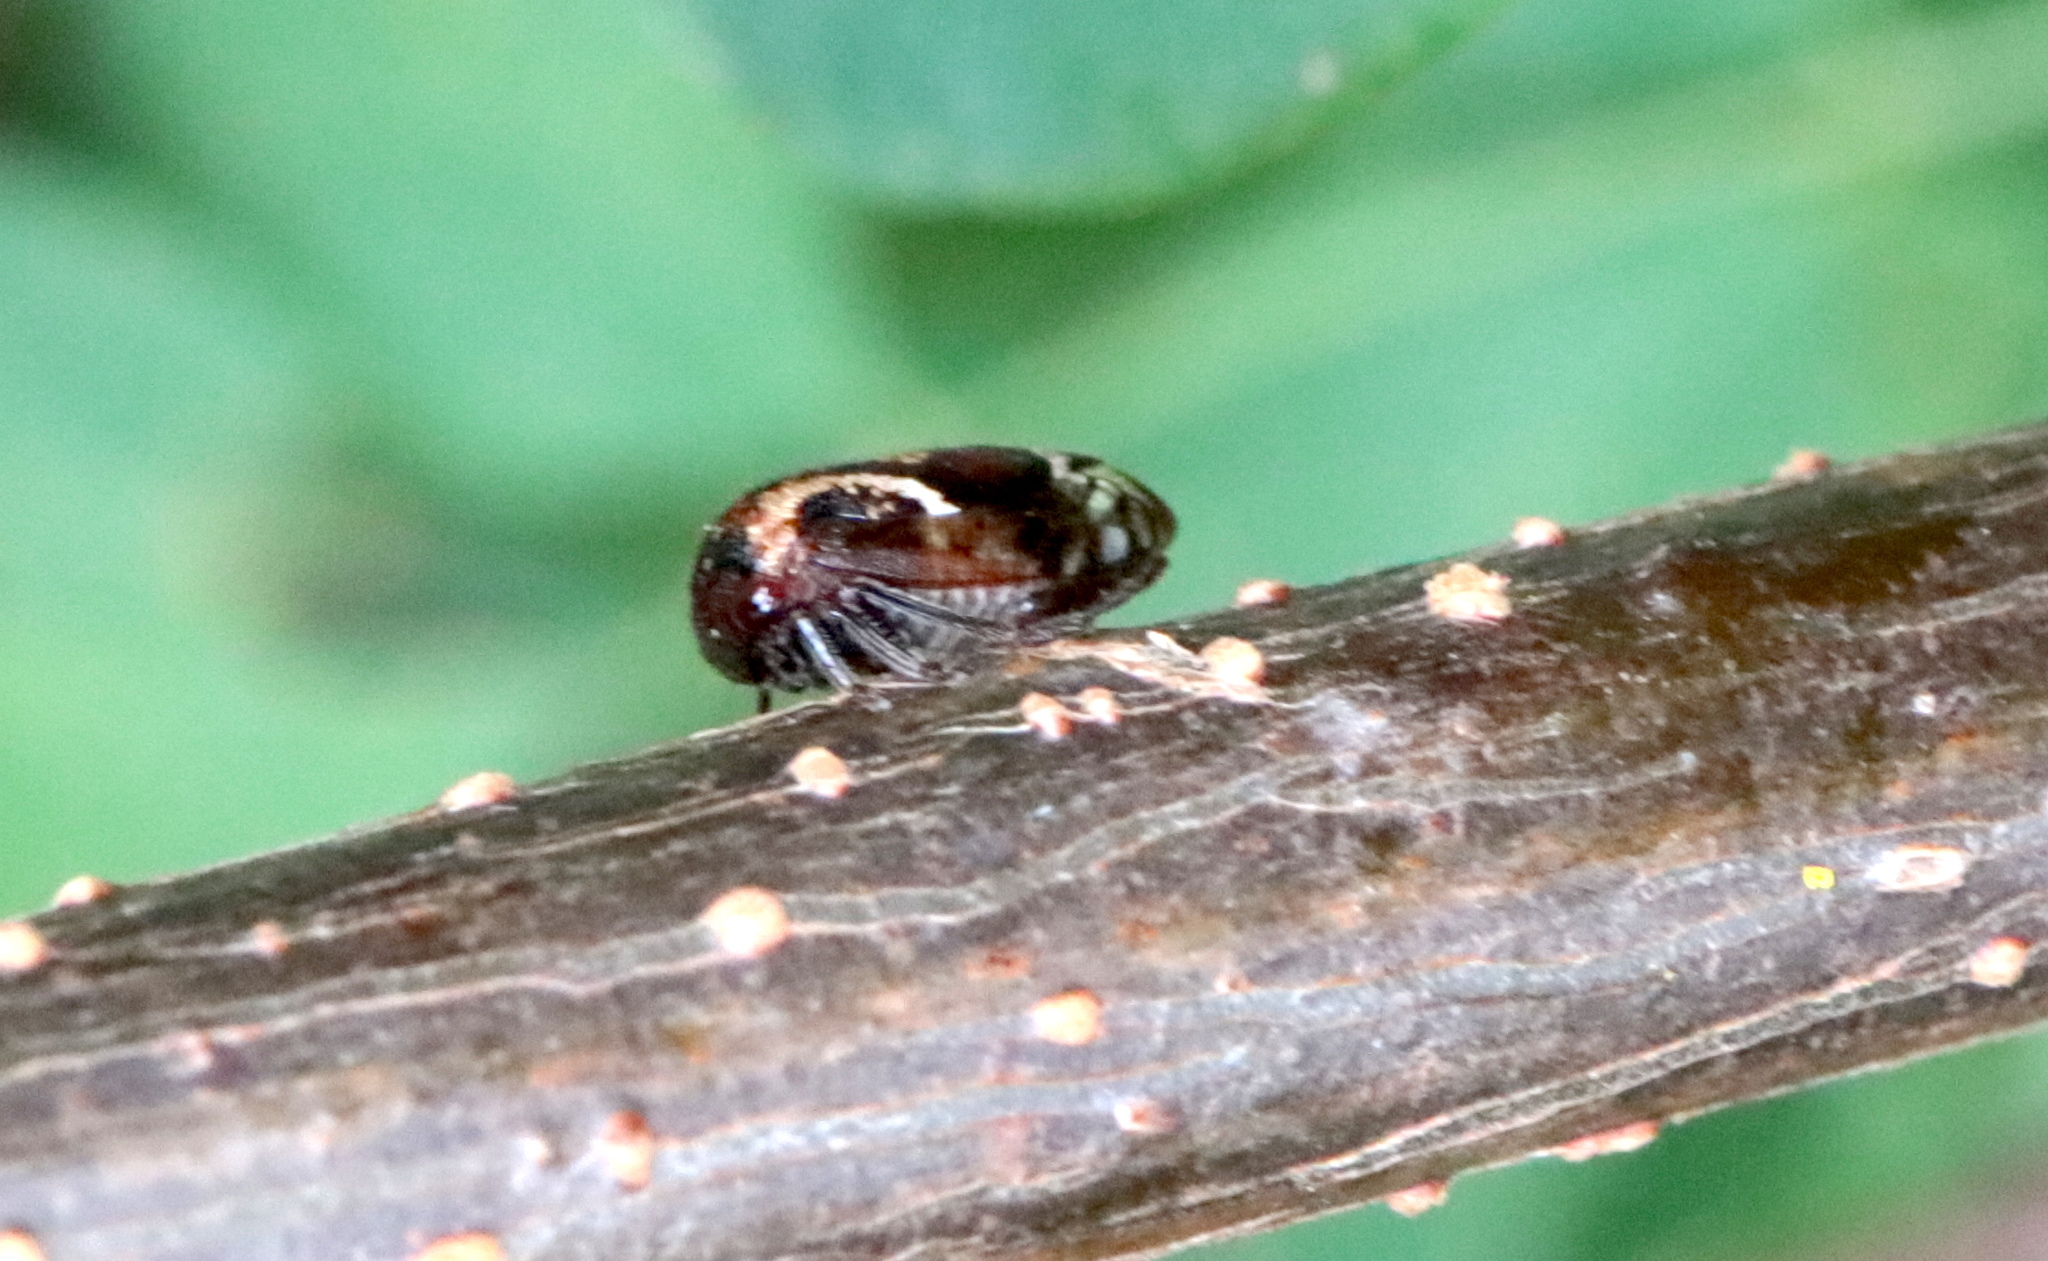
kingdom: Animalia
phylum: Arthropoda
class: Insecta
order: Hemiptera
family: Membracidae
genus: Vanduzea
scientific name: Vanduzea arquata
